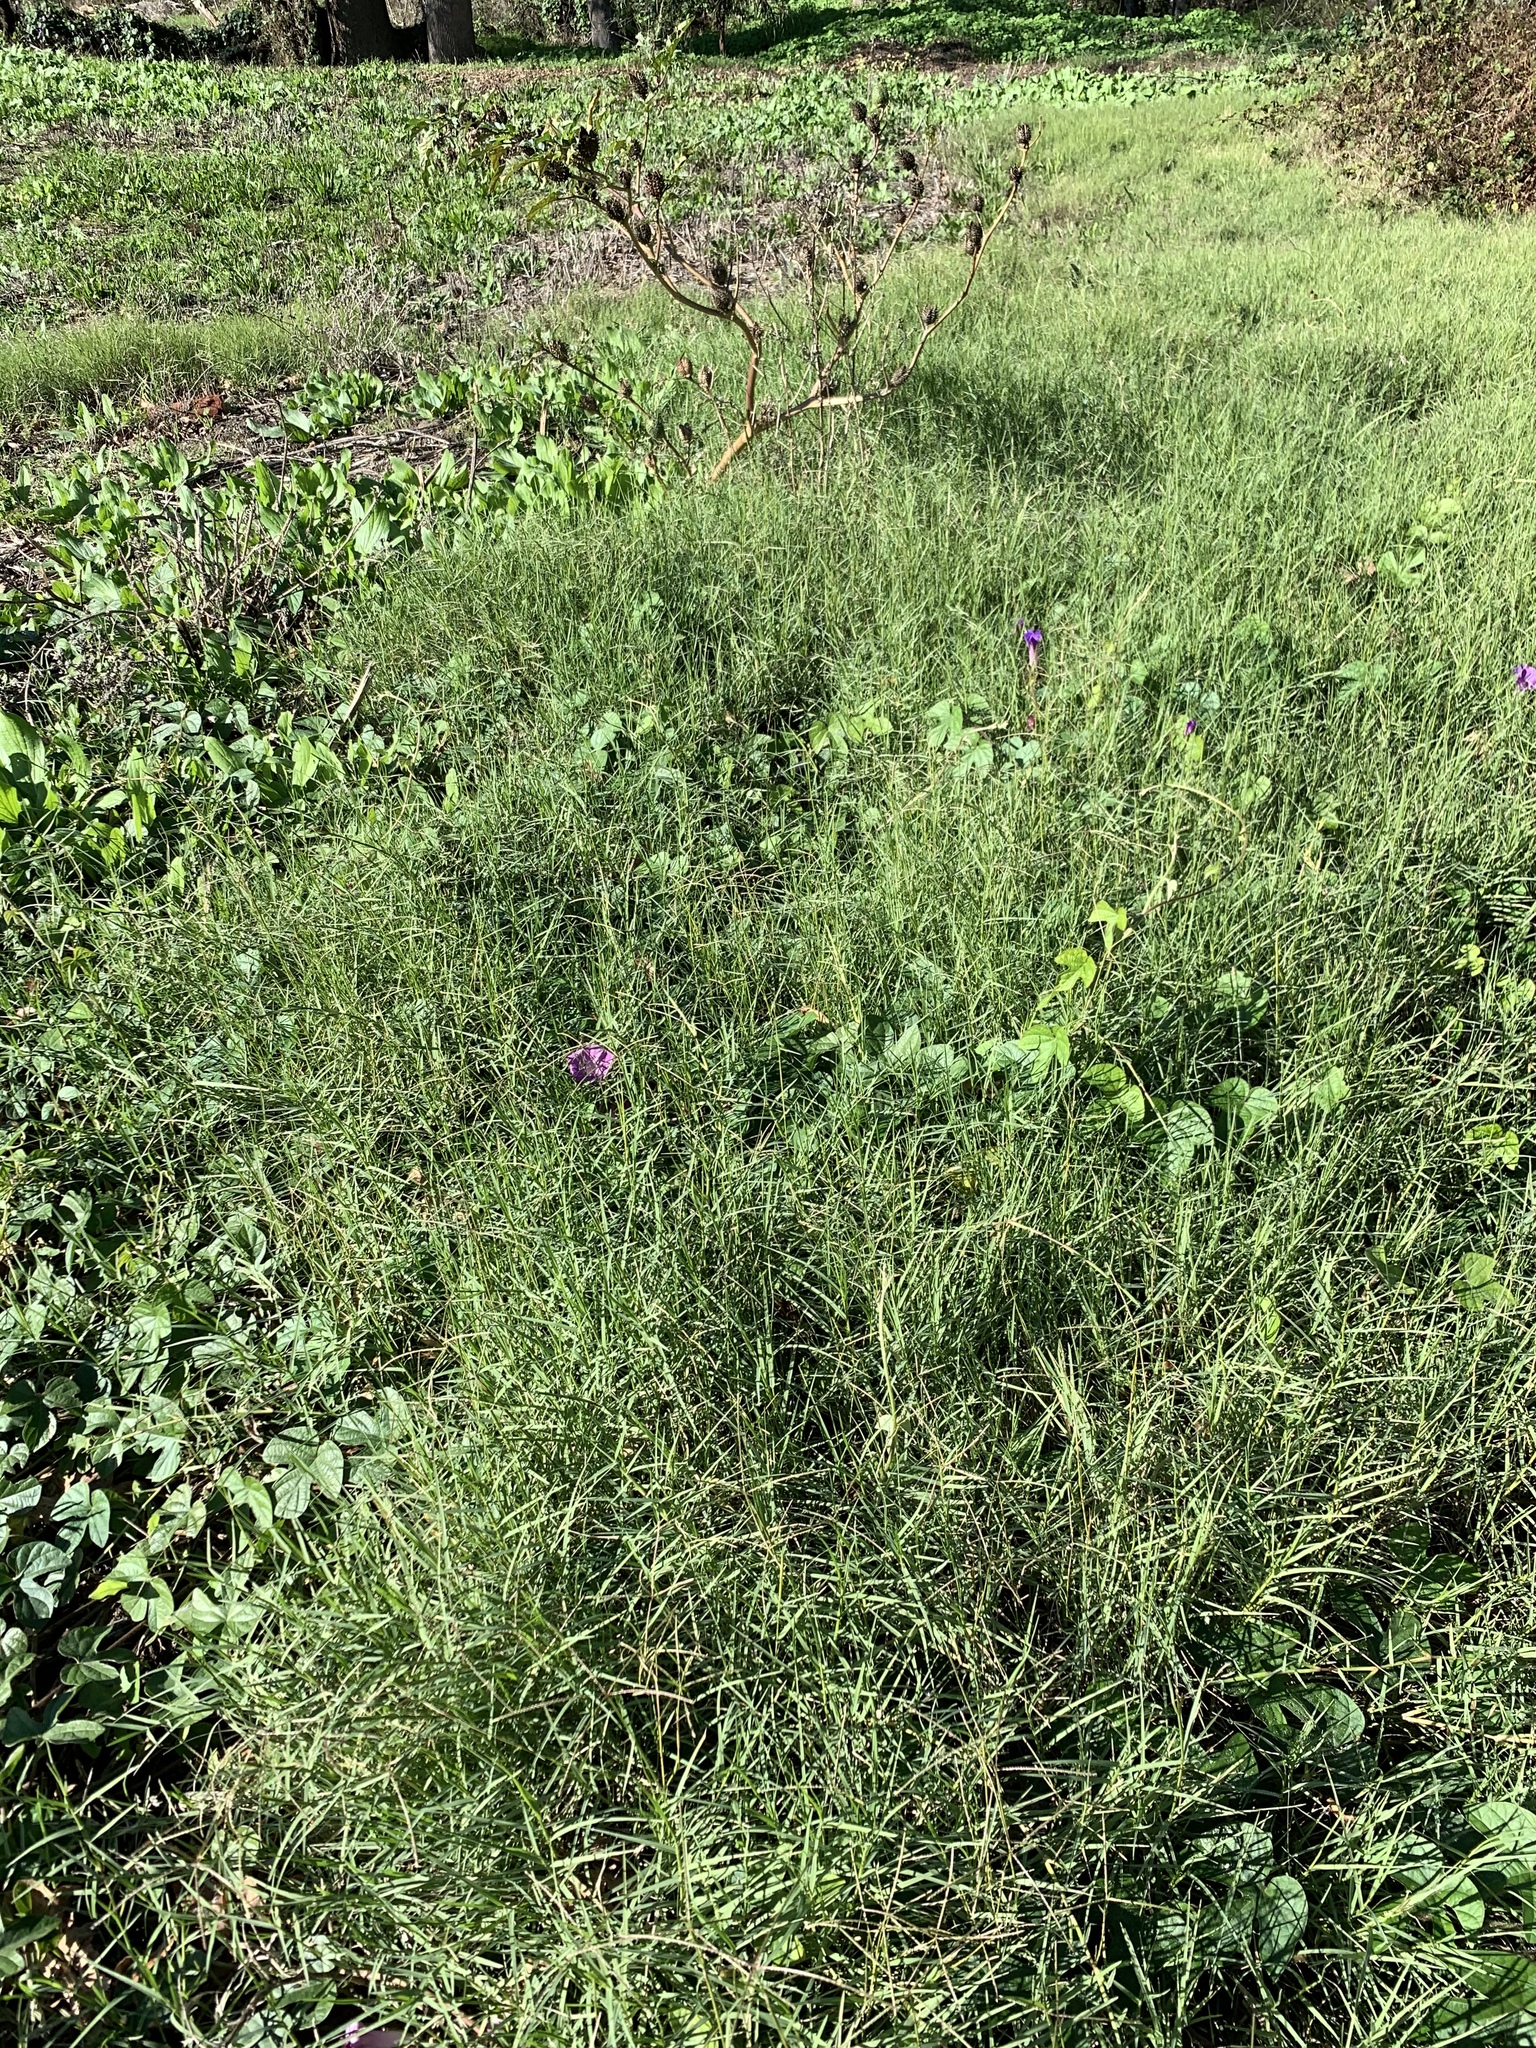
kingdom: Plantae
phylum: Tracheophyta
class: Liliopsida
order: Poales
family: Poaceae
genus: Cynodon
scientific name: Cynodon dactylon
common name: Bermuda grass
